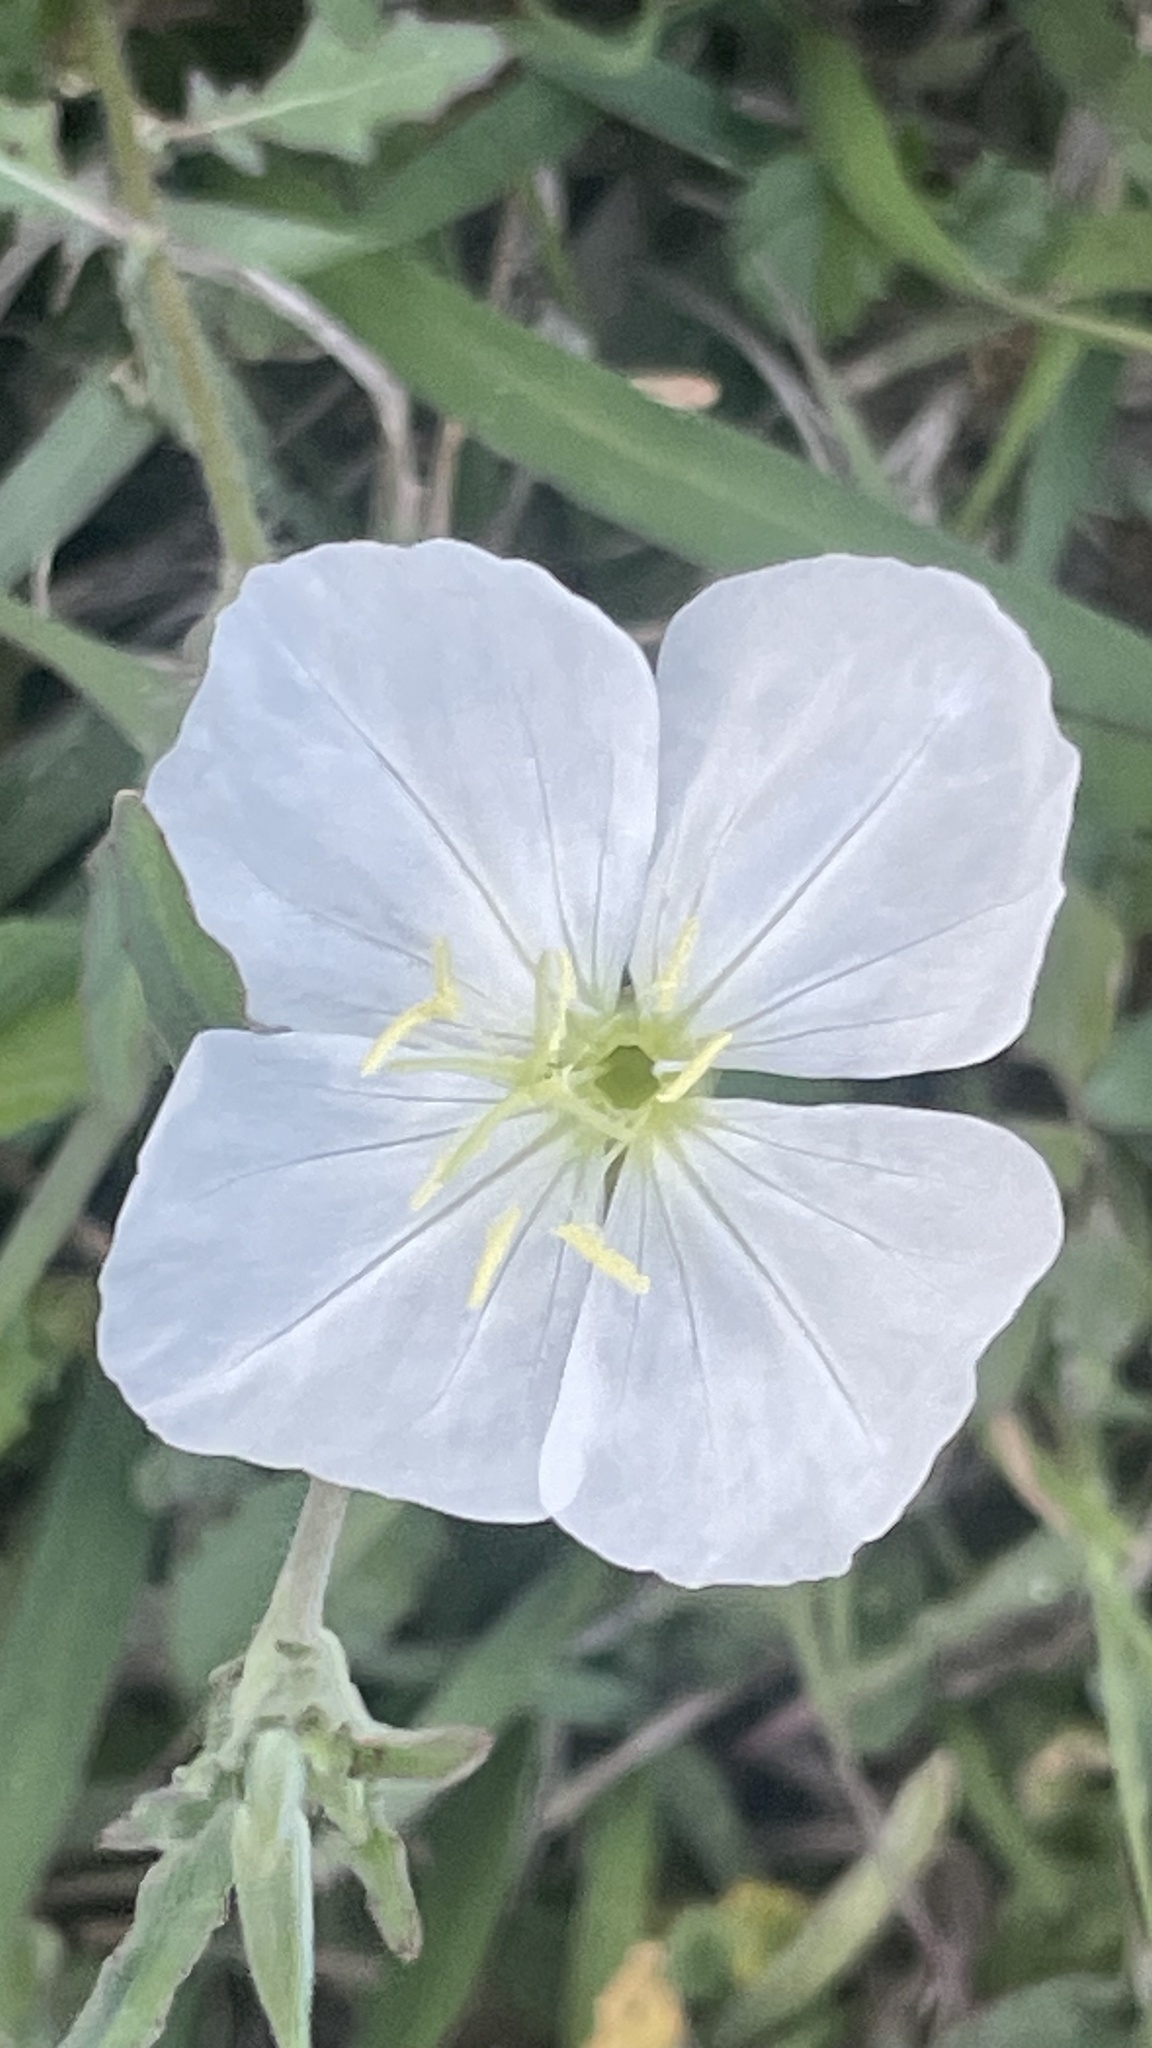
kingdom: Plantae
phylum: Tracheophyta
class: Magnoliopsida
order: Myrtales
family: Onagraceae
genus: Oenothera
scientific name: Oenothera tetraptera
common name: Four-wing evening-primrose
